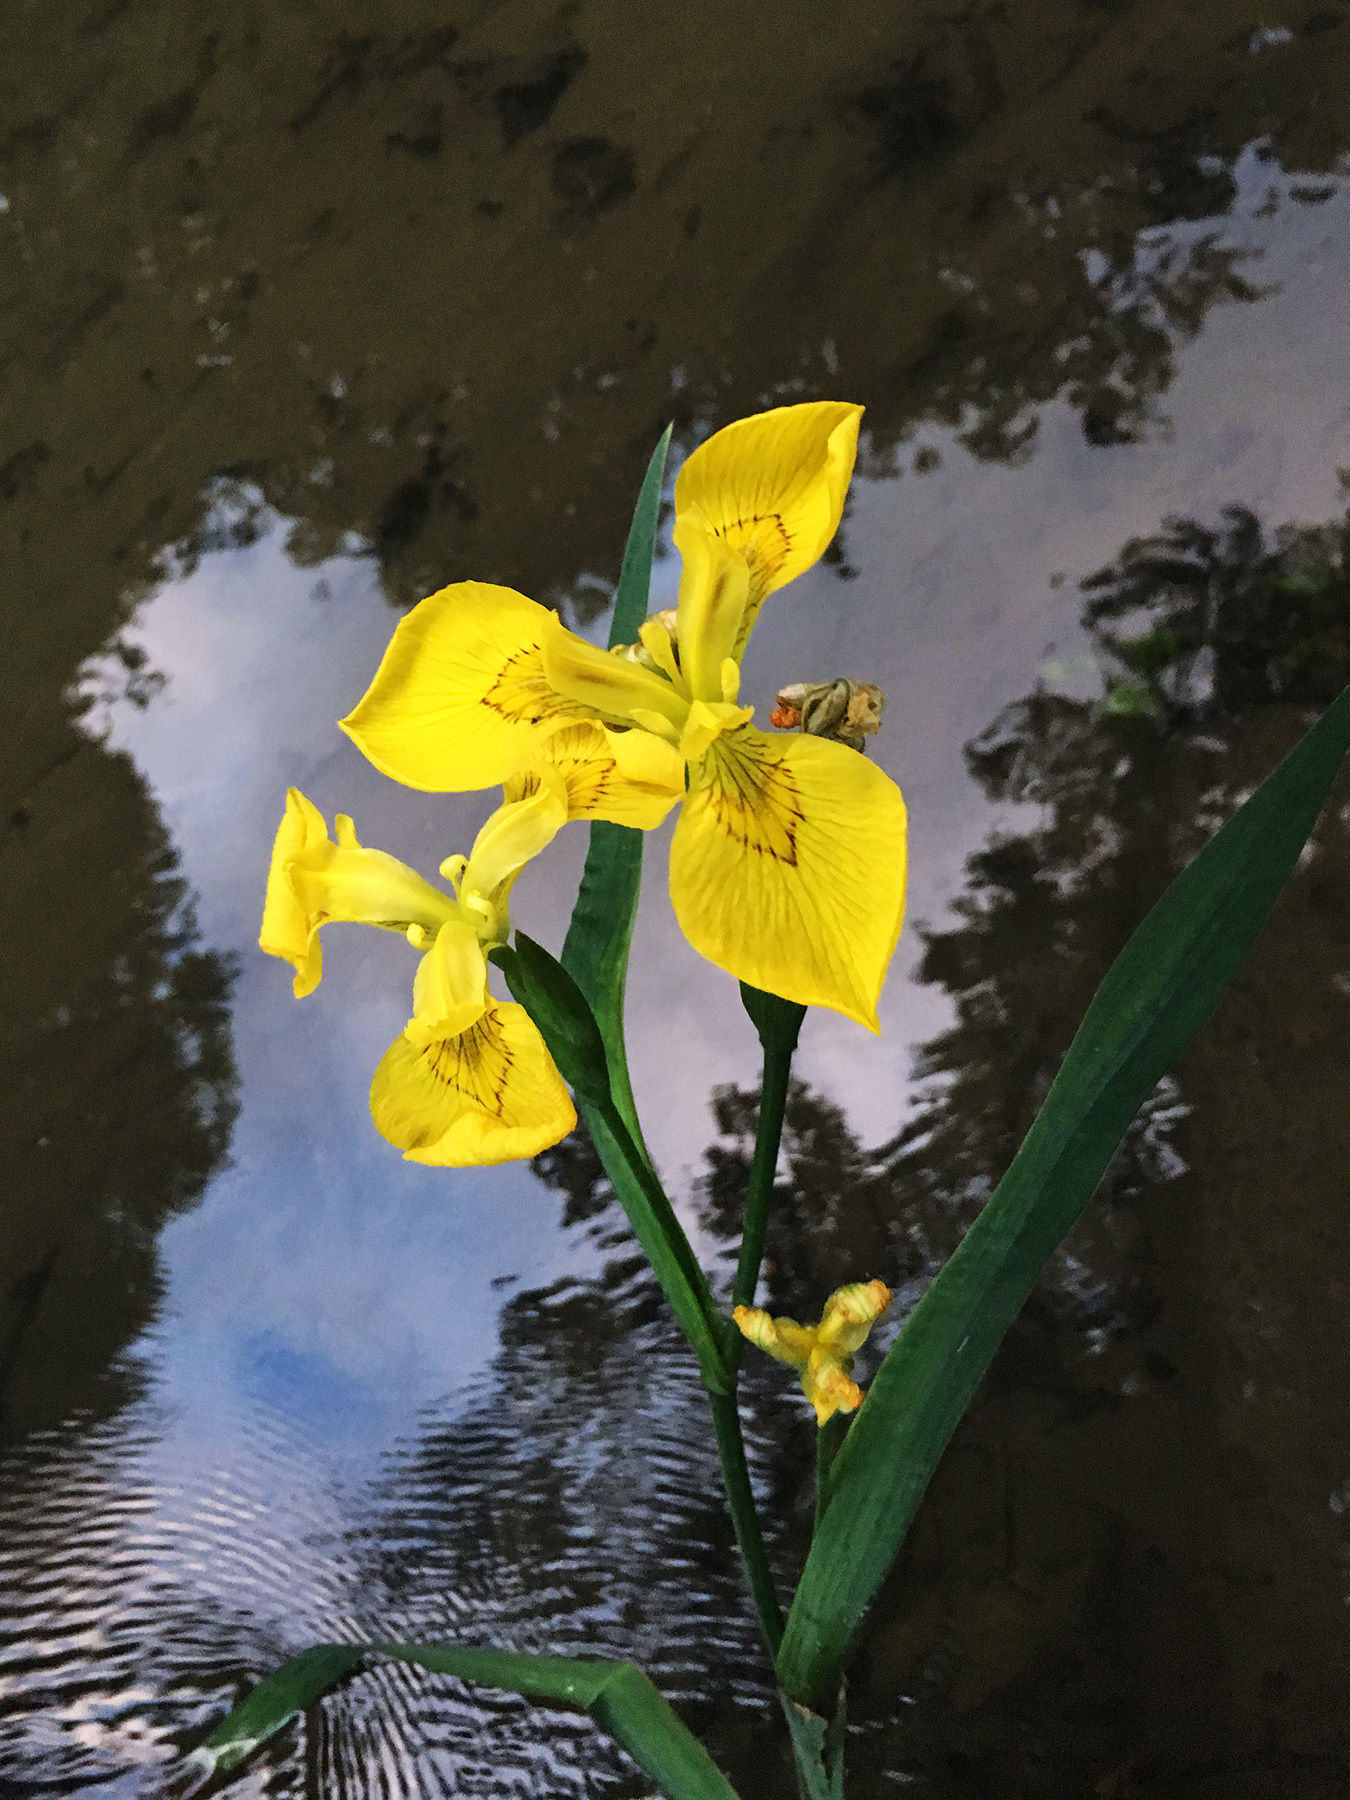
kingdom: Plantae
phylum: Tracheophyta
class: Liliopsida
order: Asparagales
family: Iridaceae
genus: Iris
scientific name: Iris pseudacorus
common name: Yellow flag
